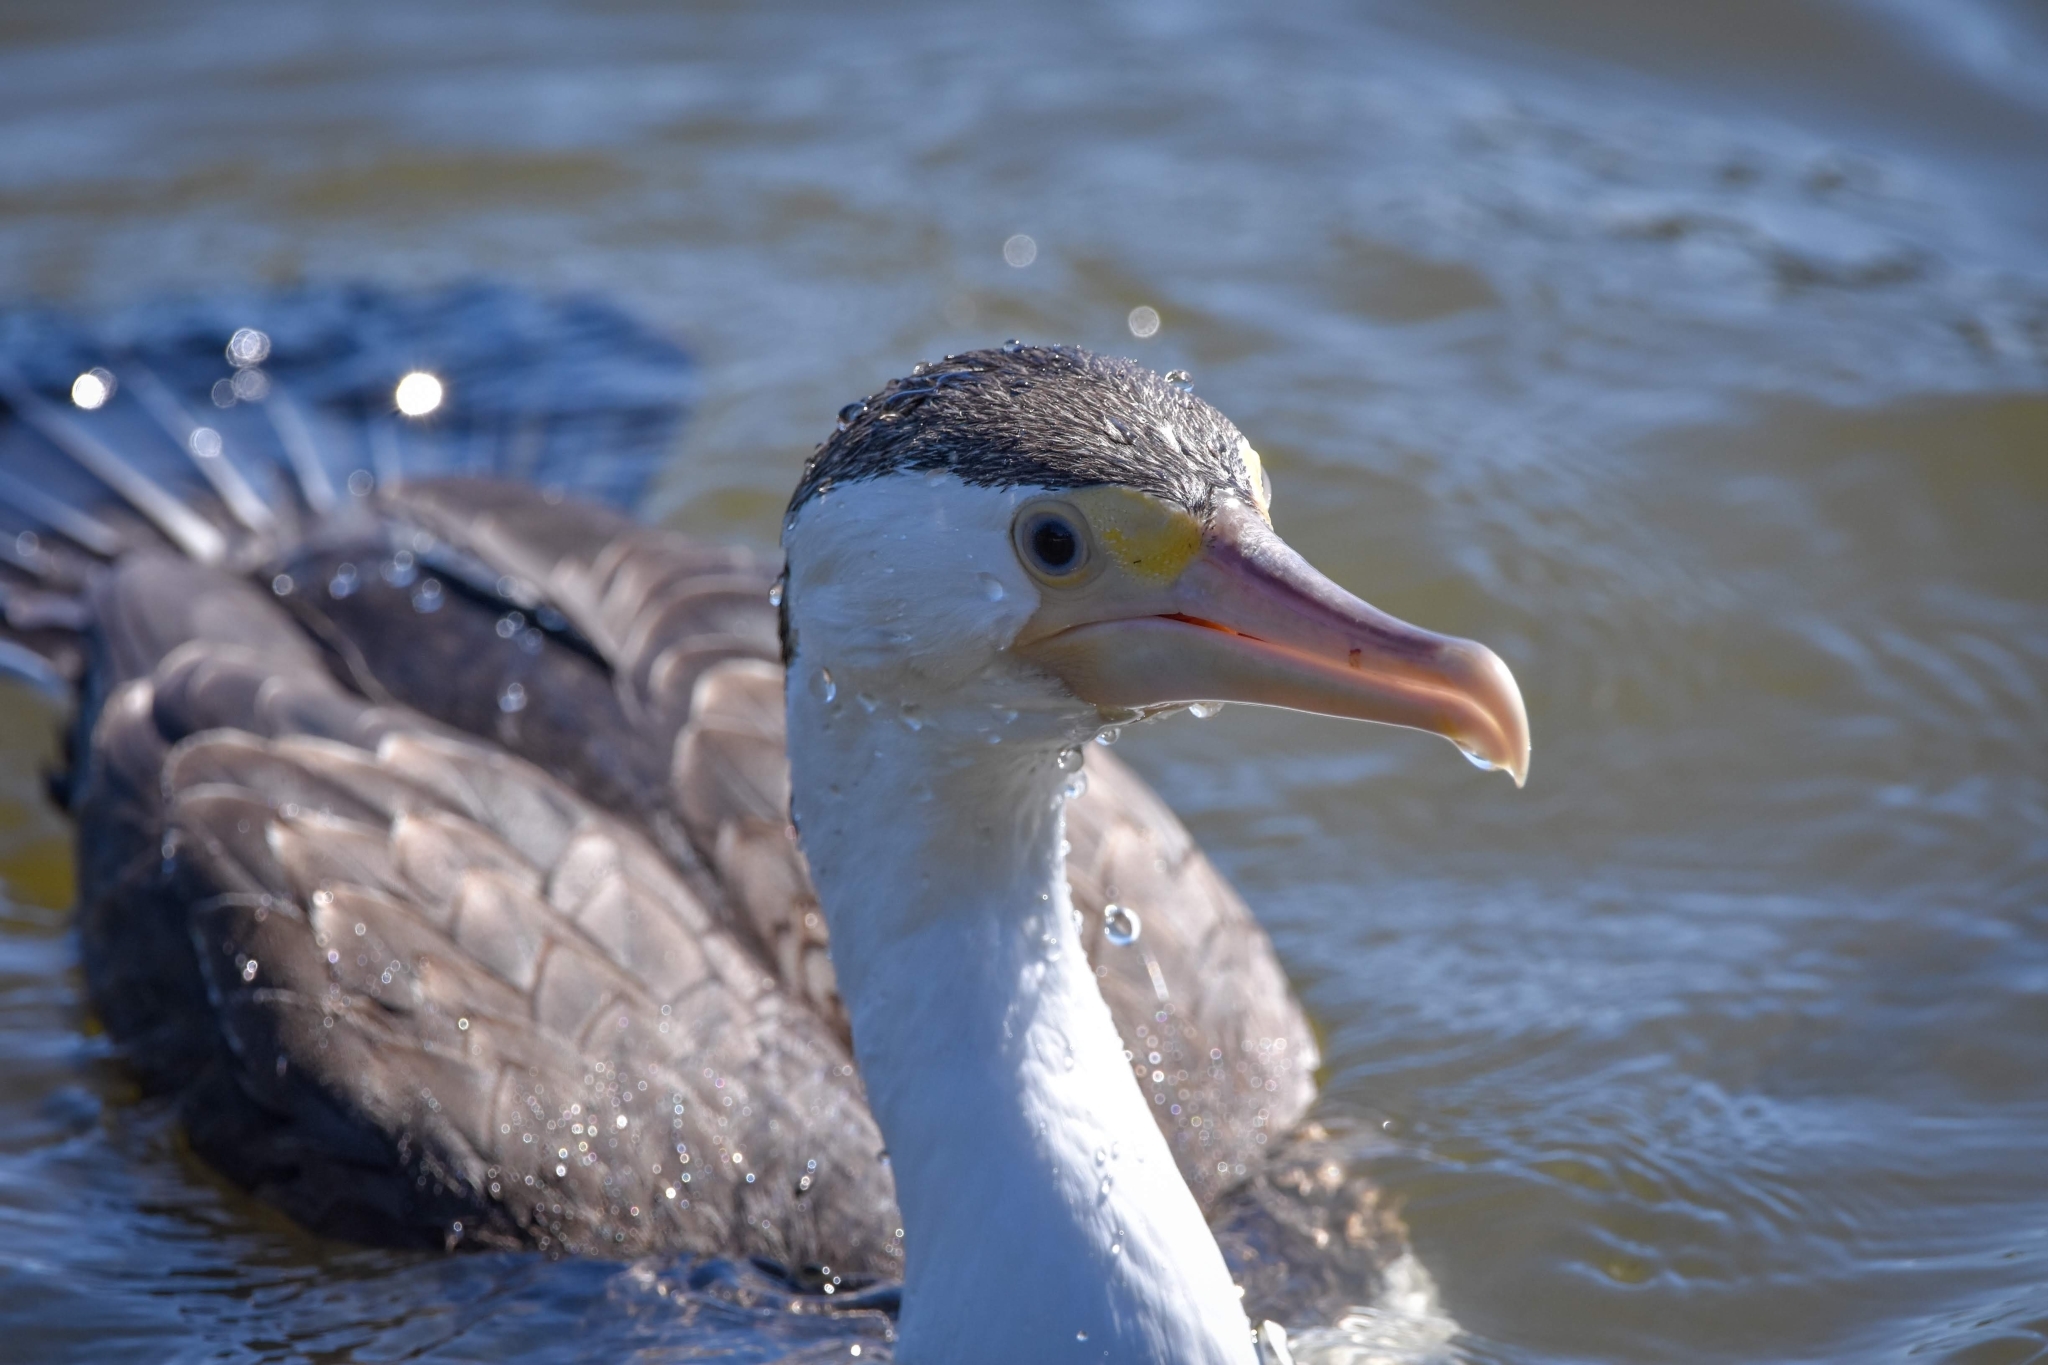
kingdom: Animalia
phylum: Chordata
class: Aves
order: Suliformes
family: Phalacrocoracidae
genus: Phalacrocorax
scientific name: Phalacrocorax varius
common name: Pied cormorant
